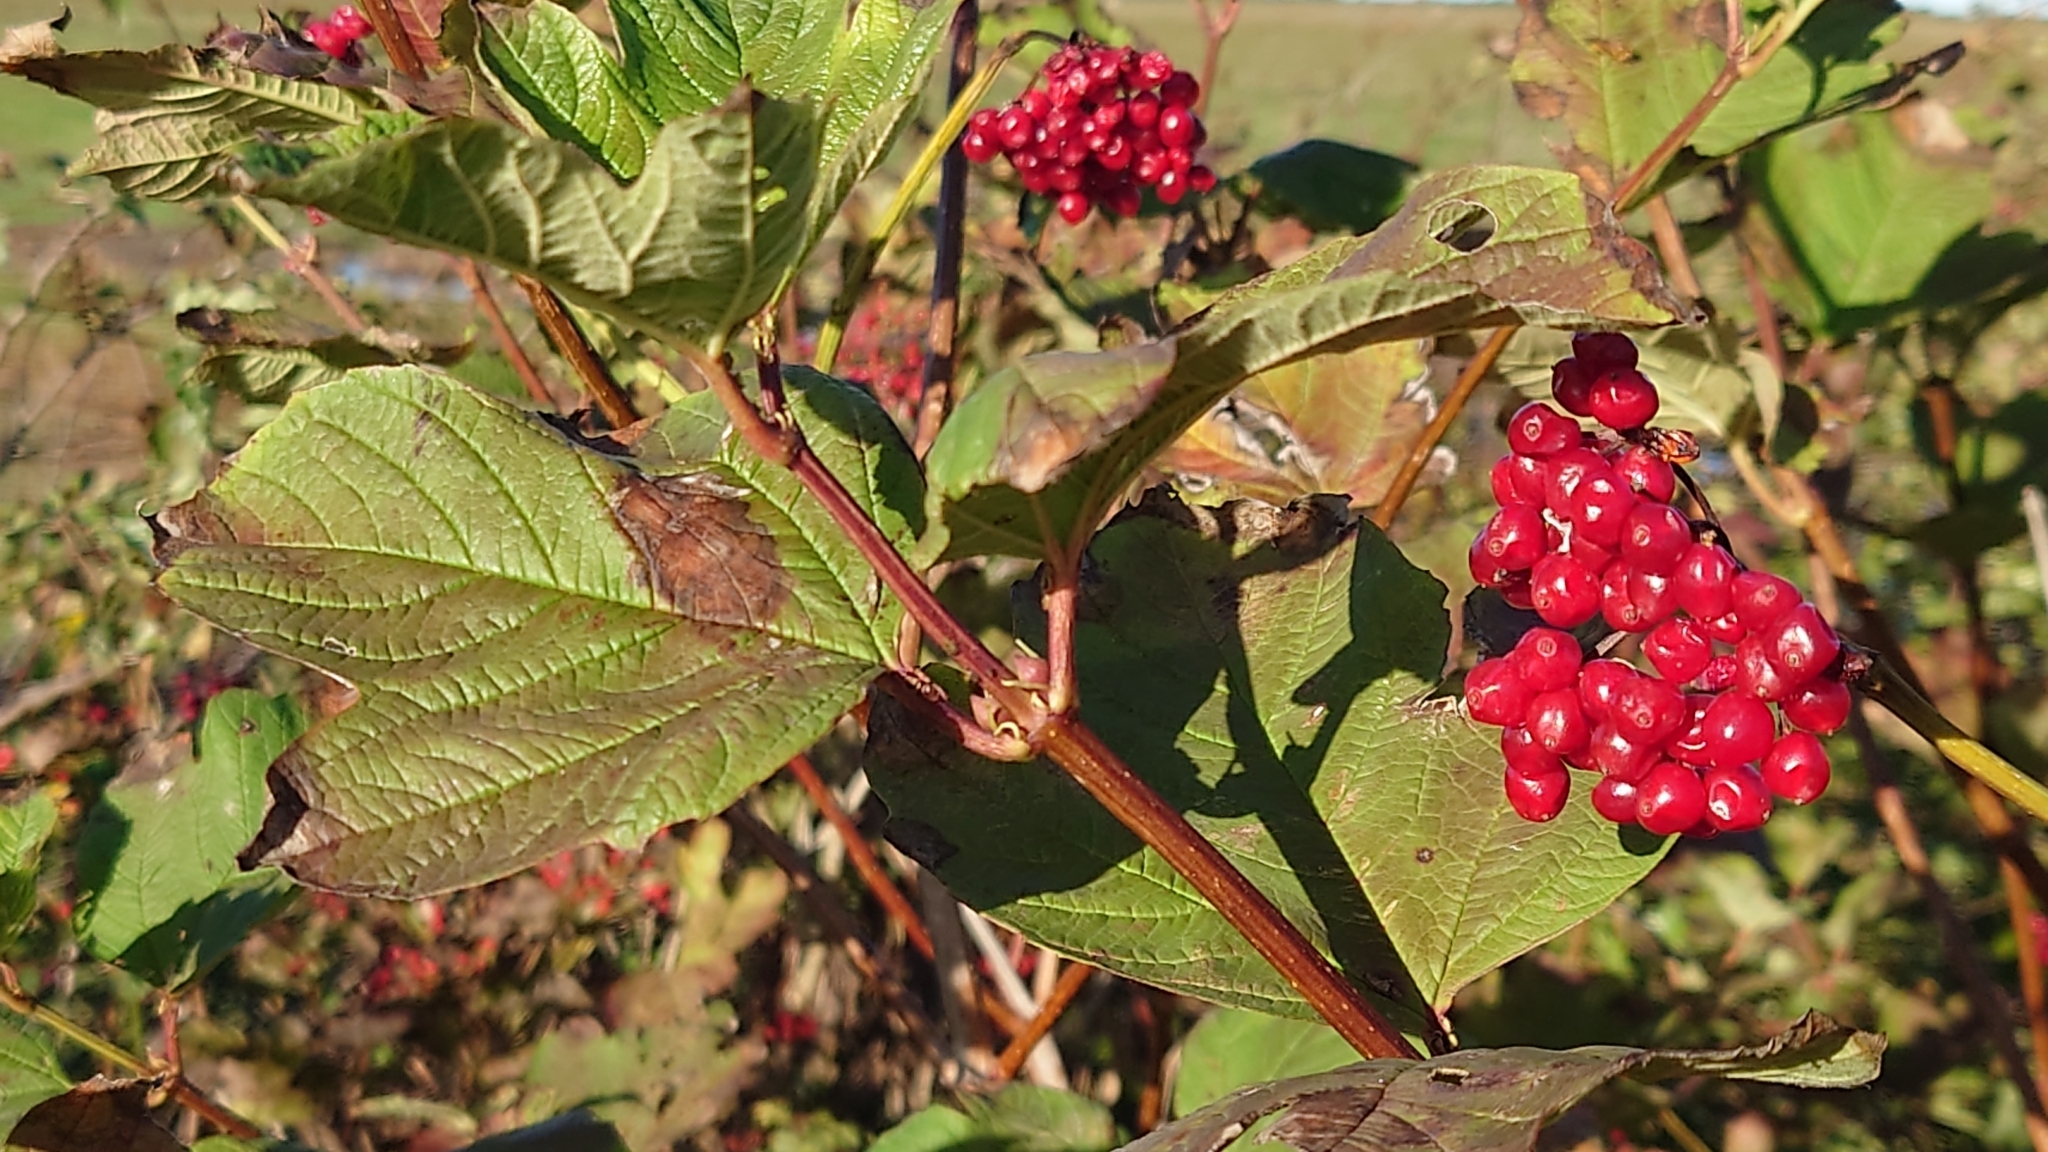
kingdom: Plantae
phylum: Tracheophyta
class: Magnoliopsida
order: Dipsacales
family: Viburnaceae
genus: Viburnum
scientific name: Viburnum opulus
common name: Guelder-rose
